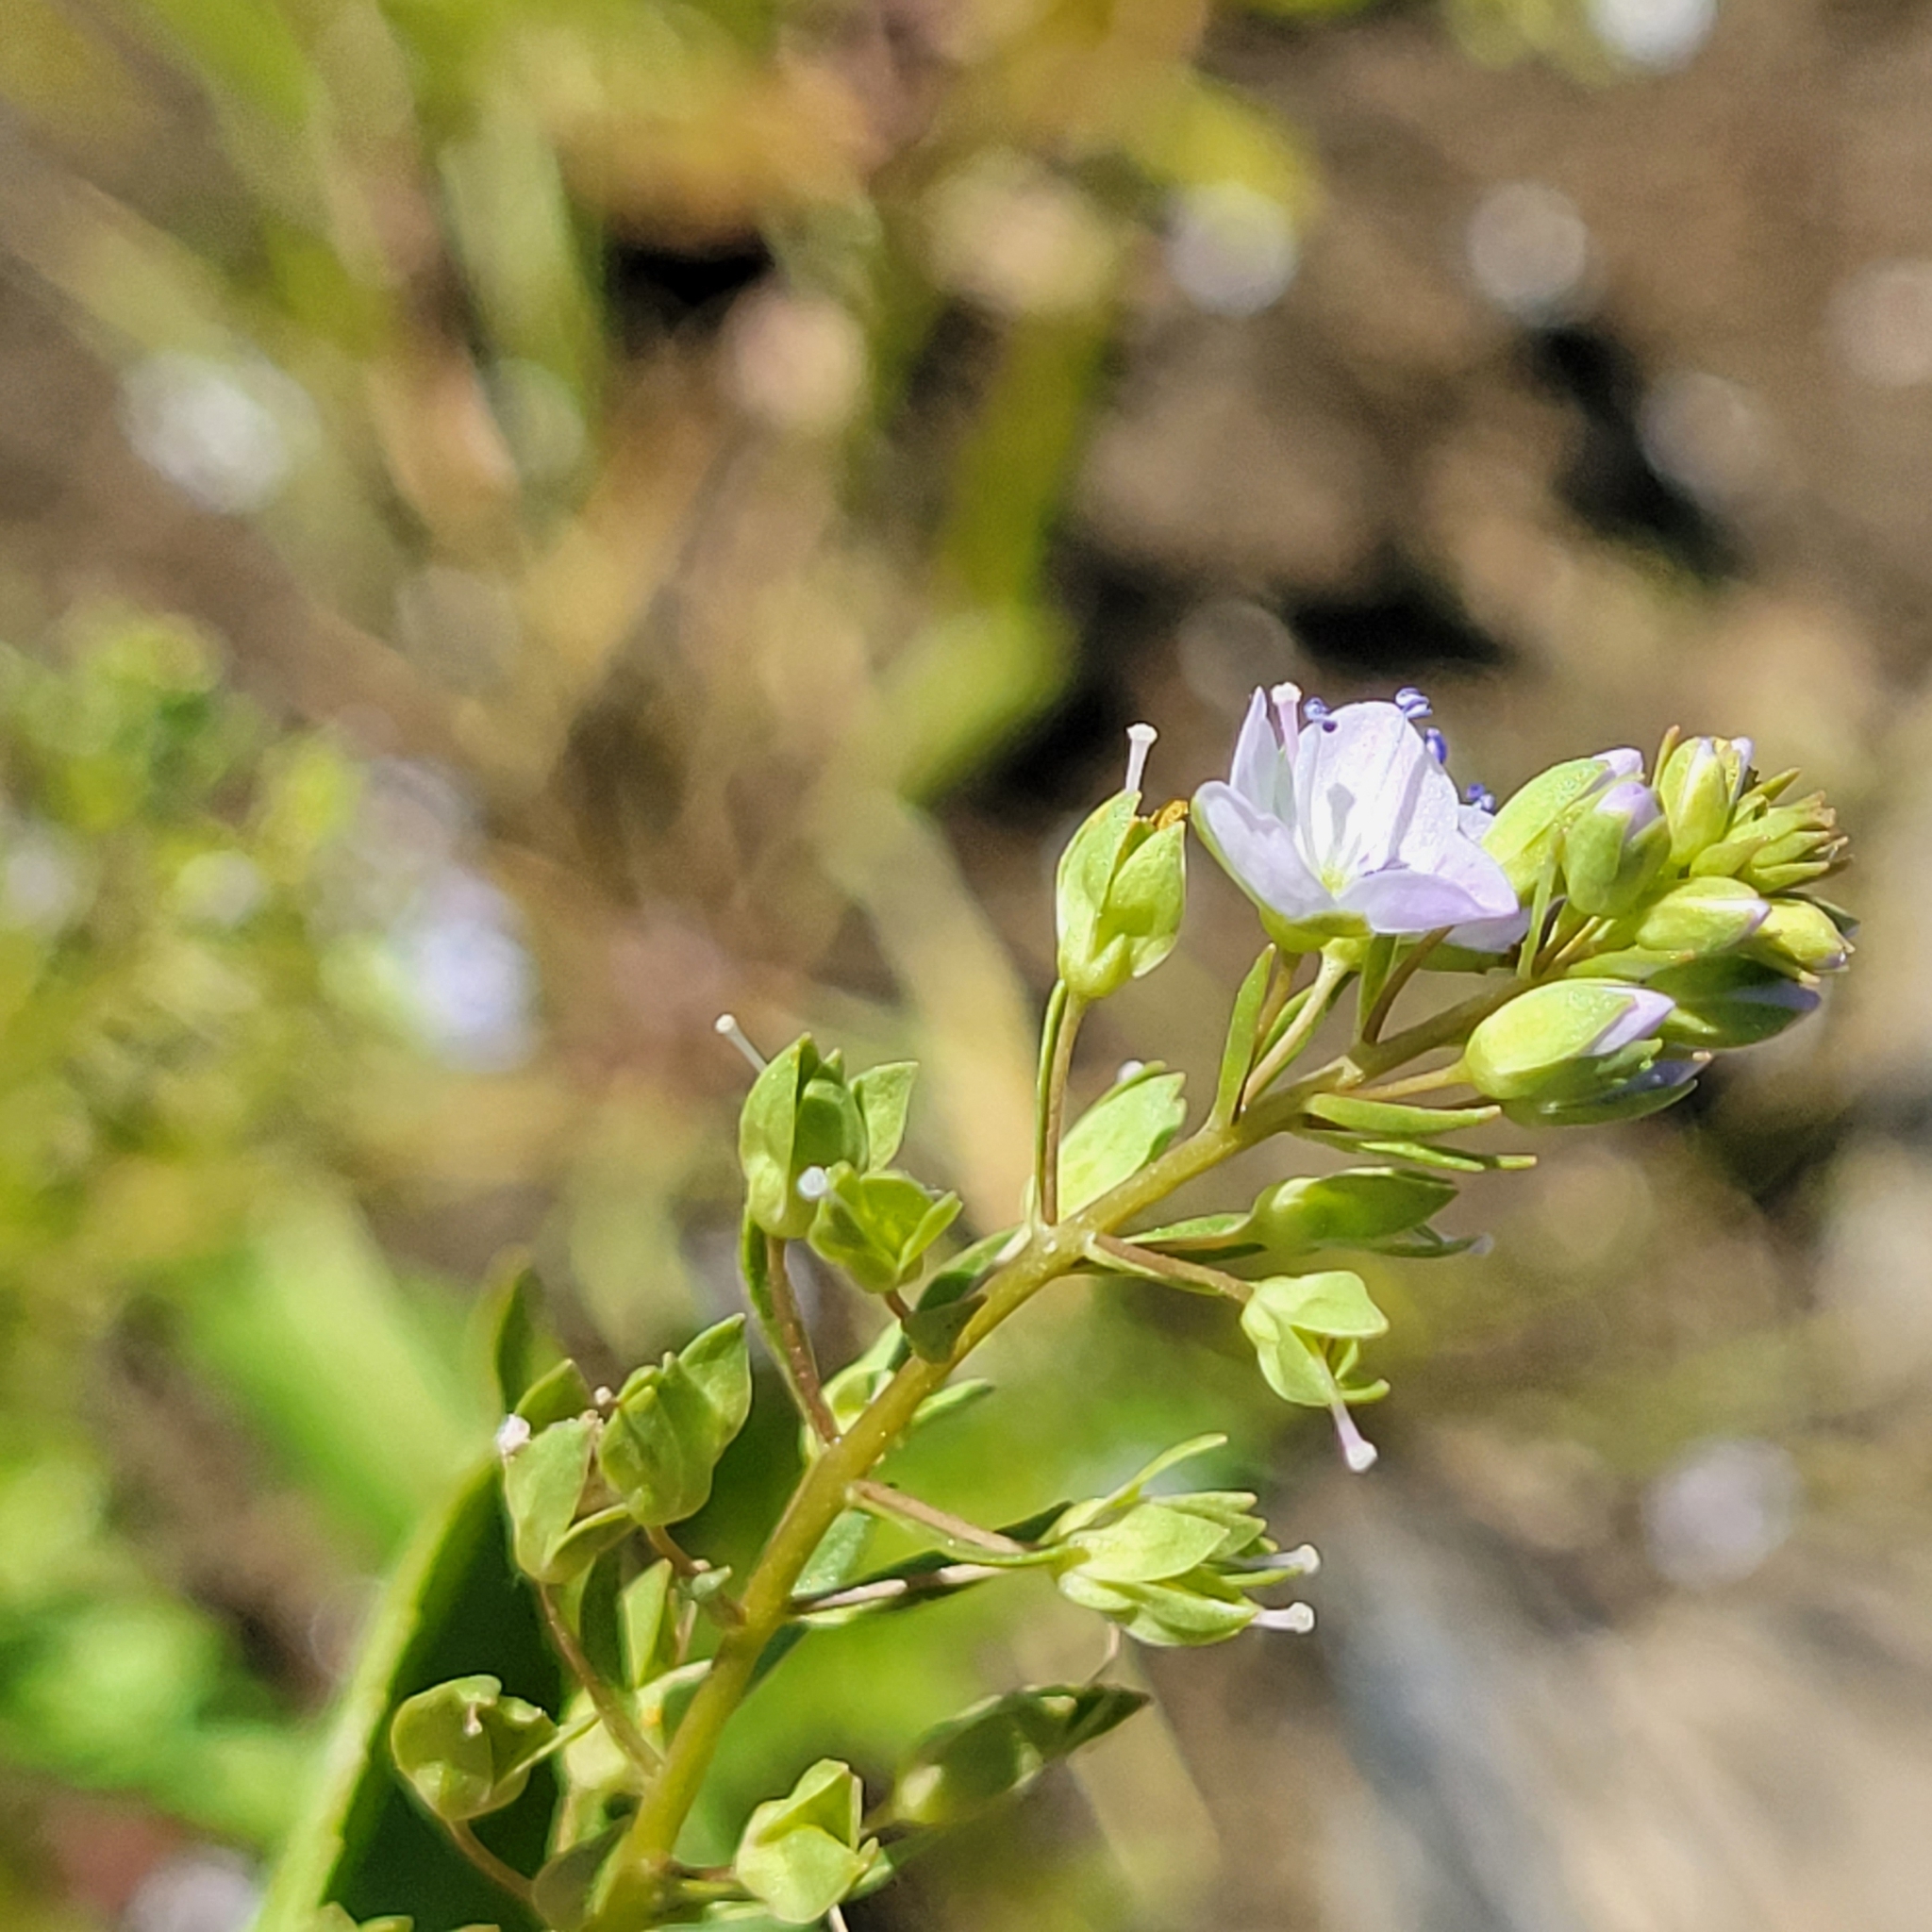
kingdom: Plantae
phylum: Tracheophyta
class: Magnoliopsida
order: Lamiales
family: Plantaginaceae
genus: Veronica
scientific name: Veronica anagallis-aquatica
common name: Water speedwell
